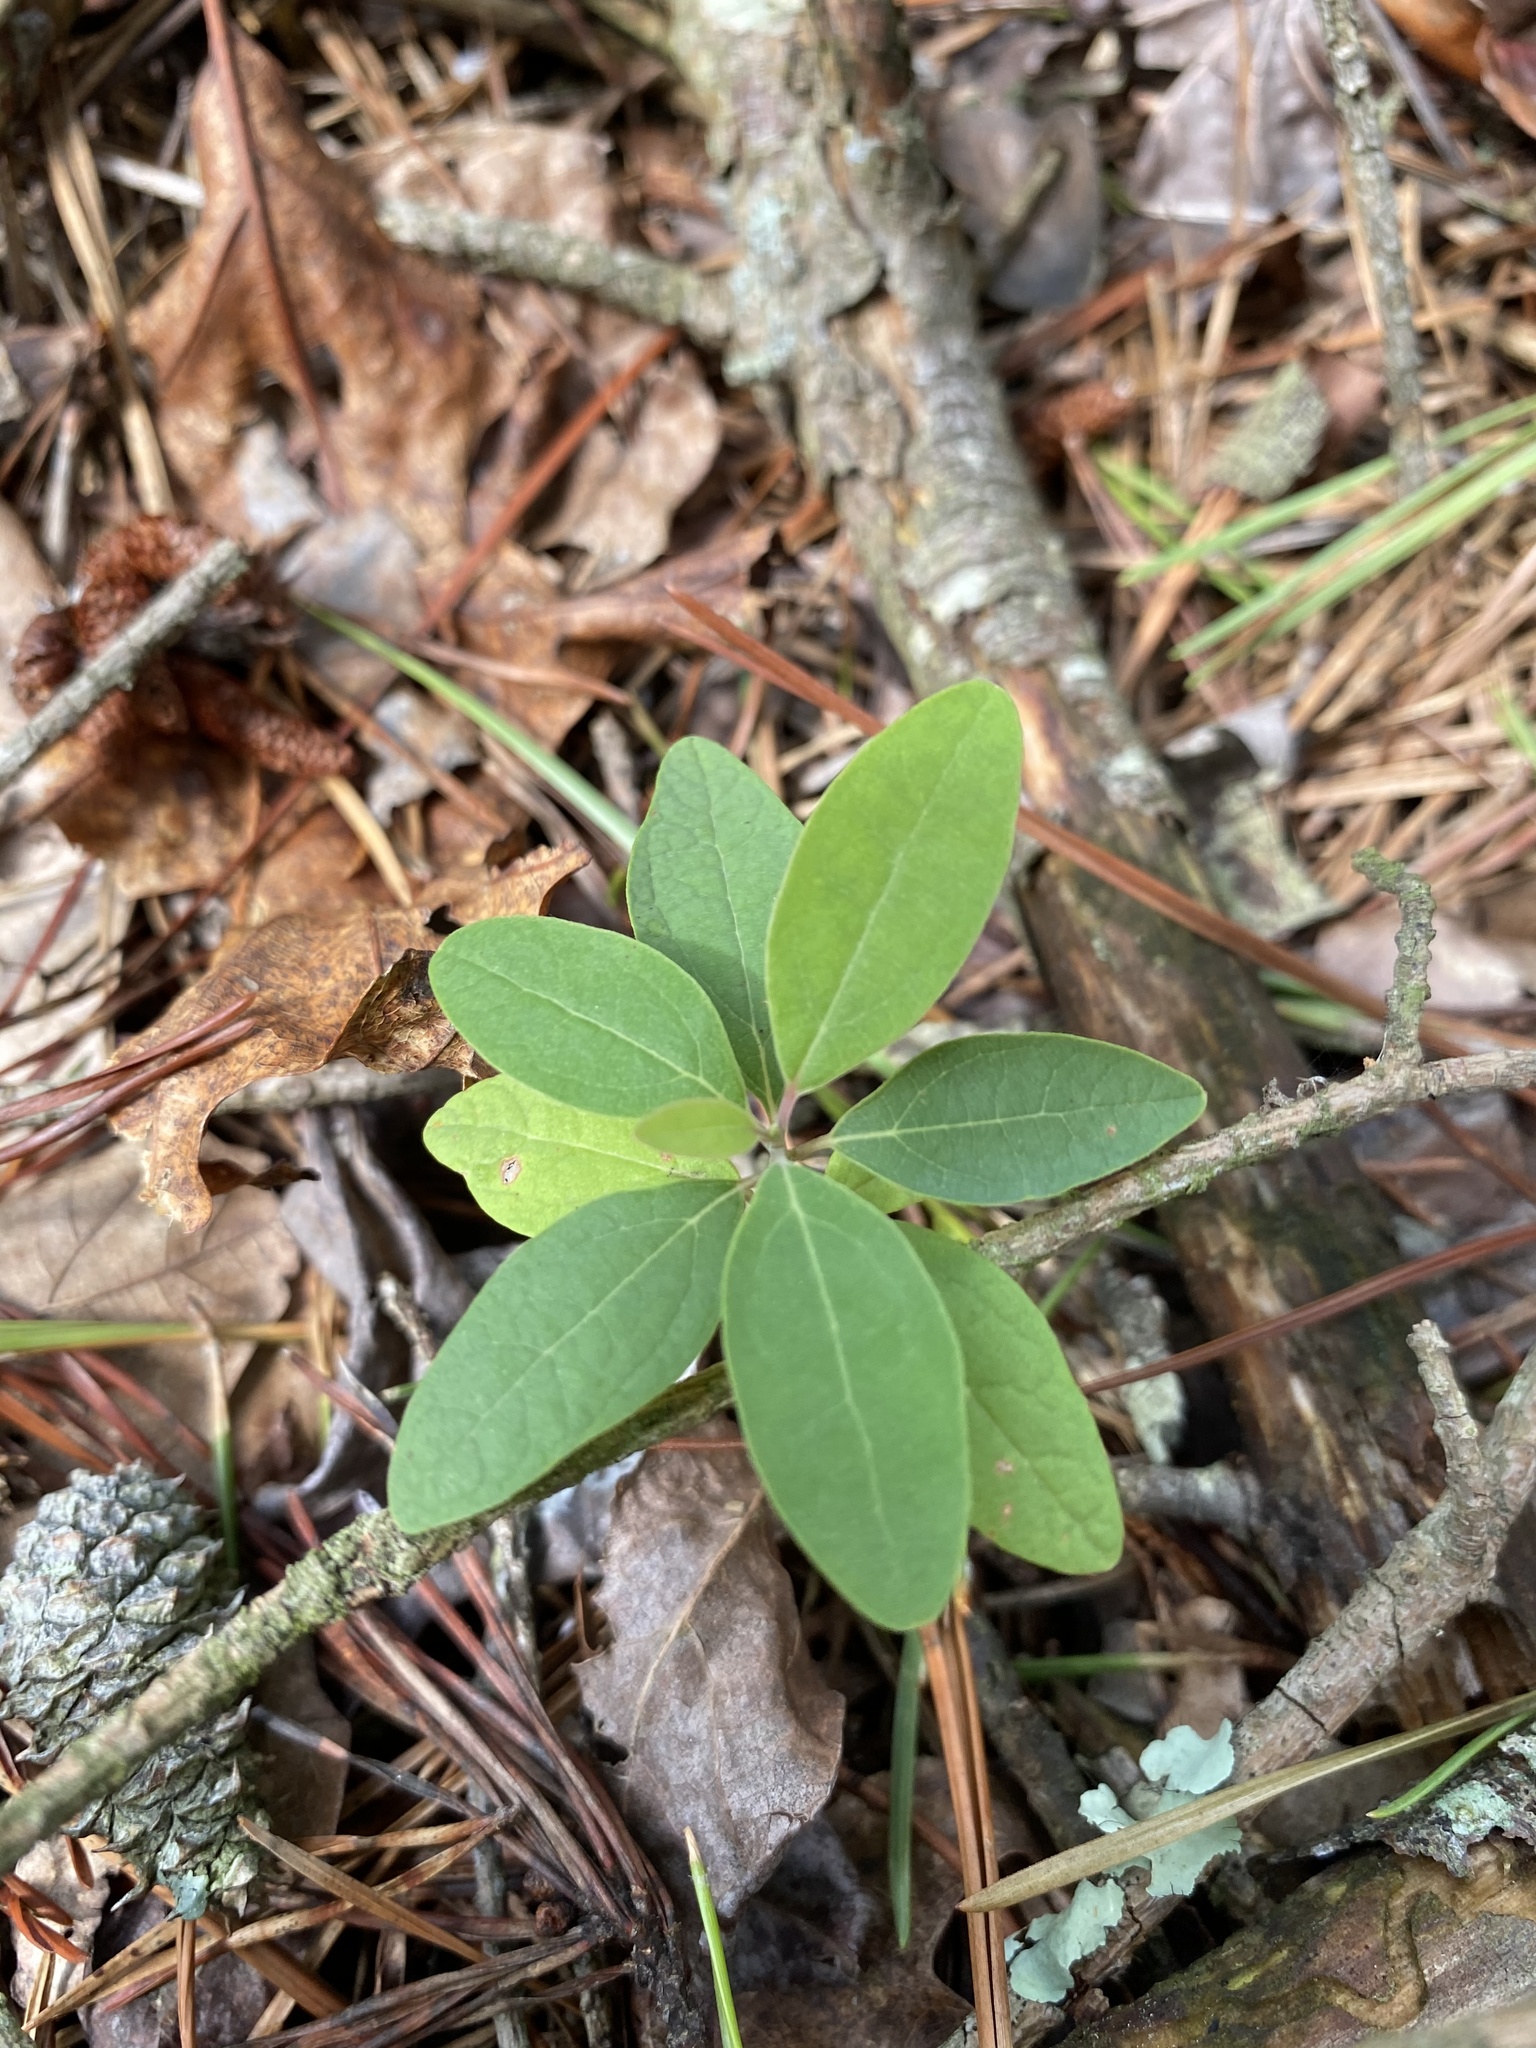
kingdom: Plantae
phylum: Tracheophyta
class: Magnoliopsida
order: Laurales
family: Lauraceae
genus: Sassafras
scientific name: Sassafras albidum
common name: Sassafras
